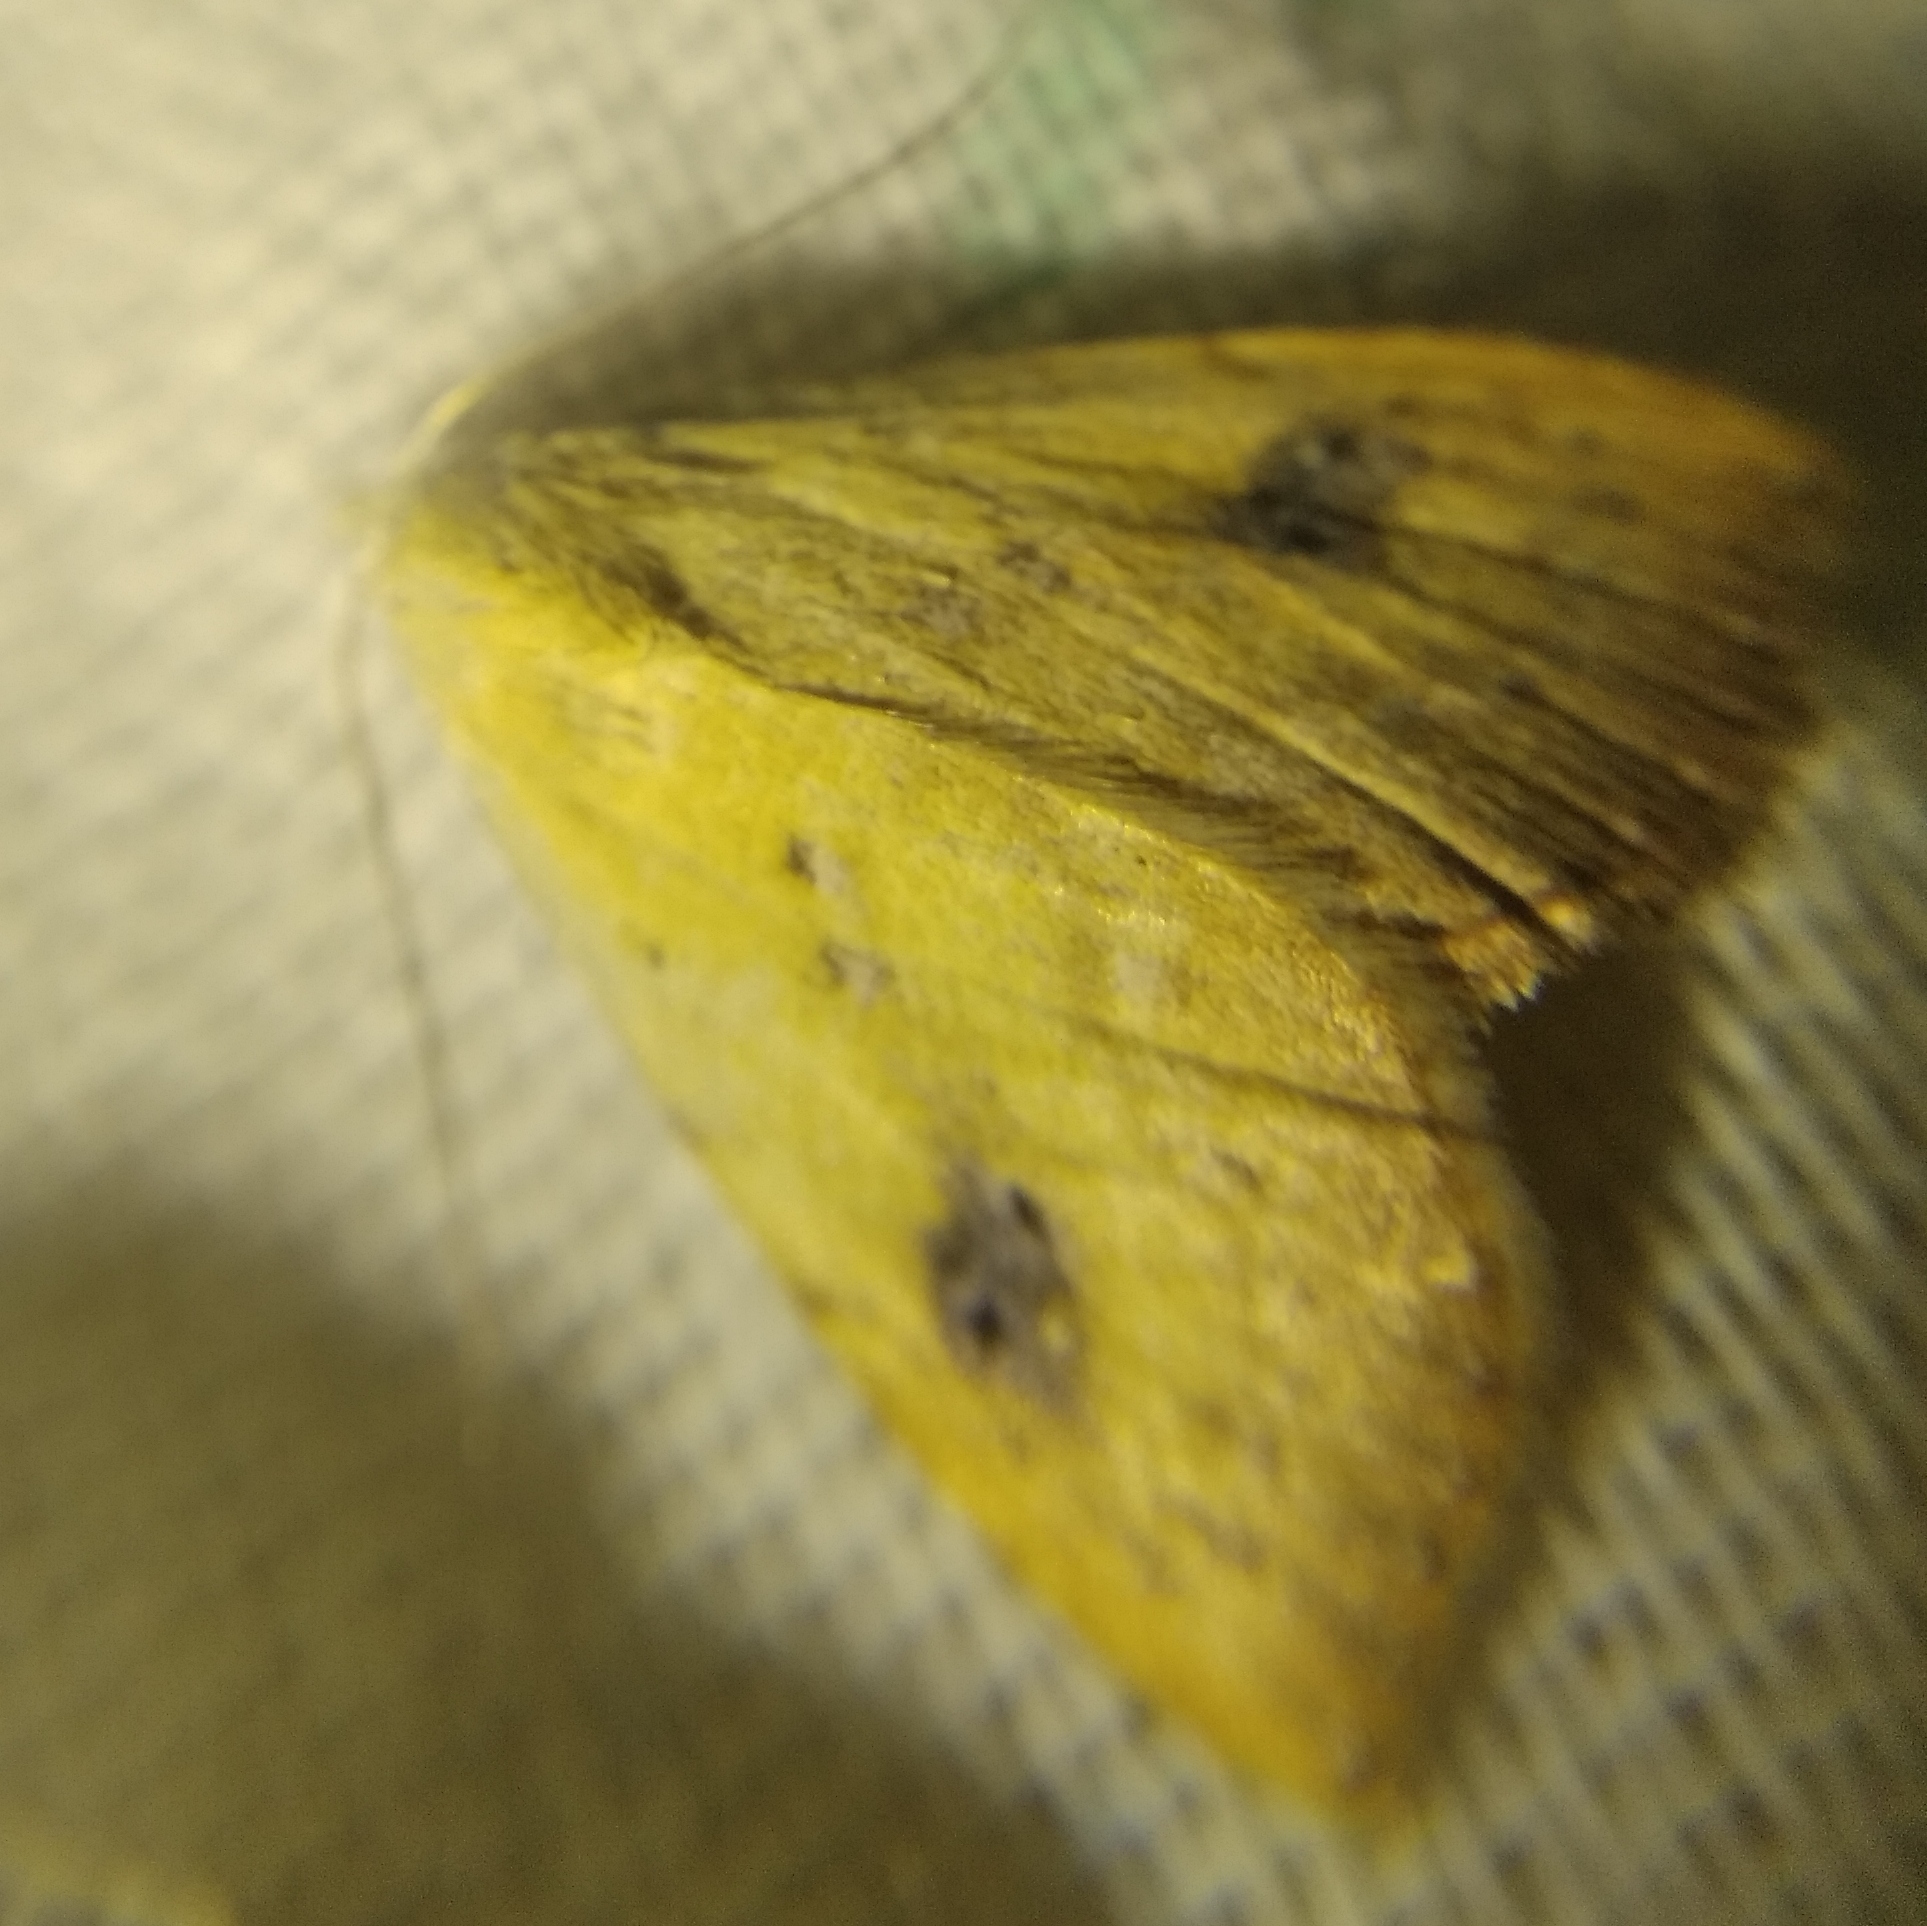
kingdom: Animalia
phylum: Arthropoda
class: Insecta
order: Lepidoptera
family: Erebidae
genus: Rivula
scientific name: Rivula sericealis
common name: Straw dot
